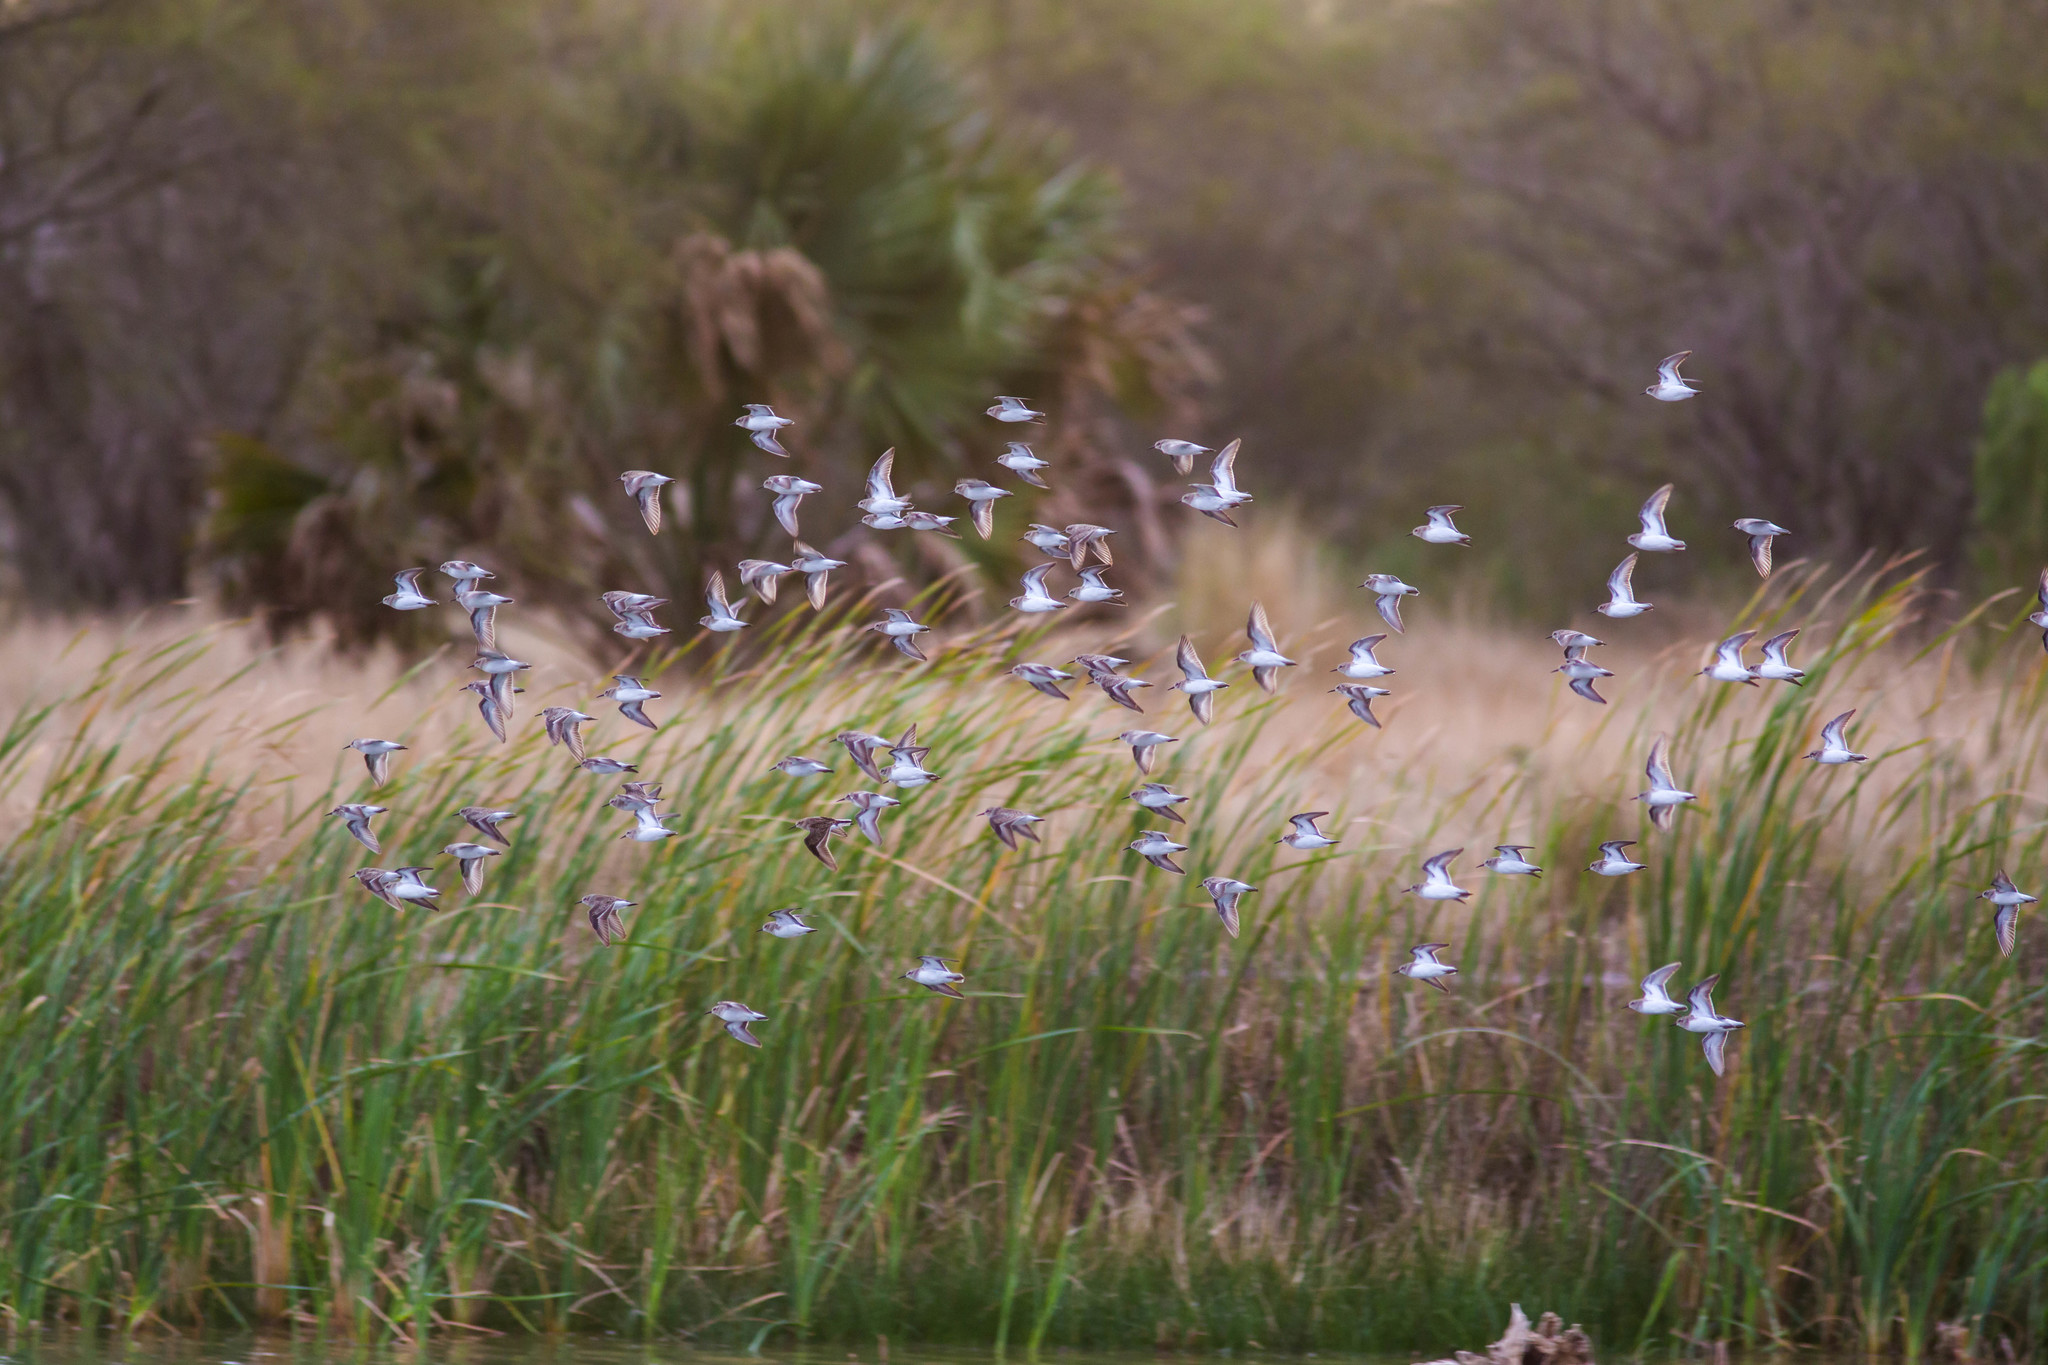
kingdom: Animalia
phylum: Chordata
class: Aves
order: Charadriiformes
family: Scolopacidae
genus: Calidris
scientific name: Calidris minutilla
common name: Least sandpiper
